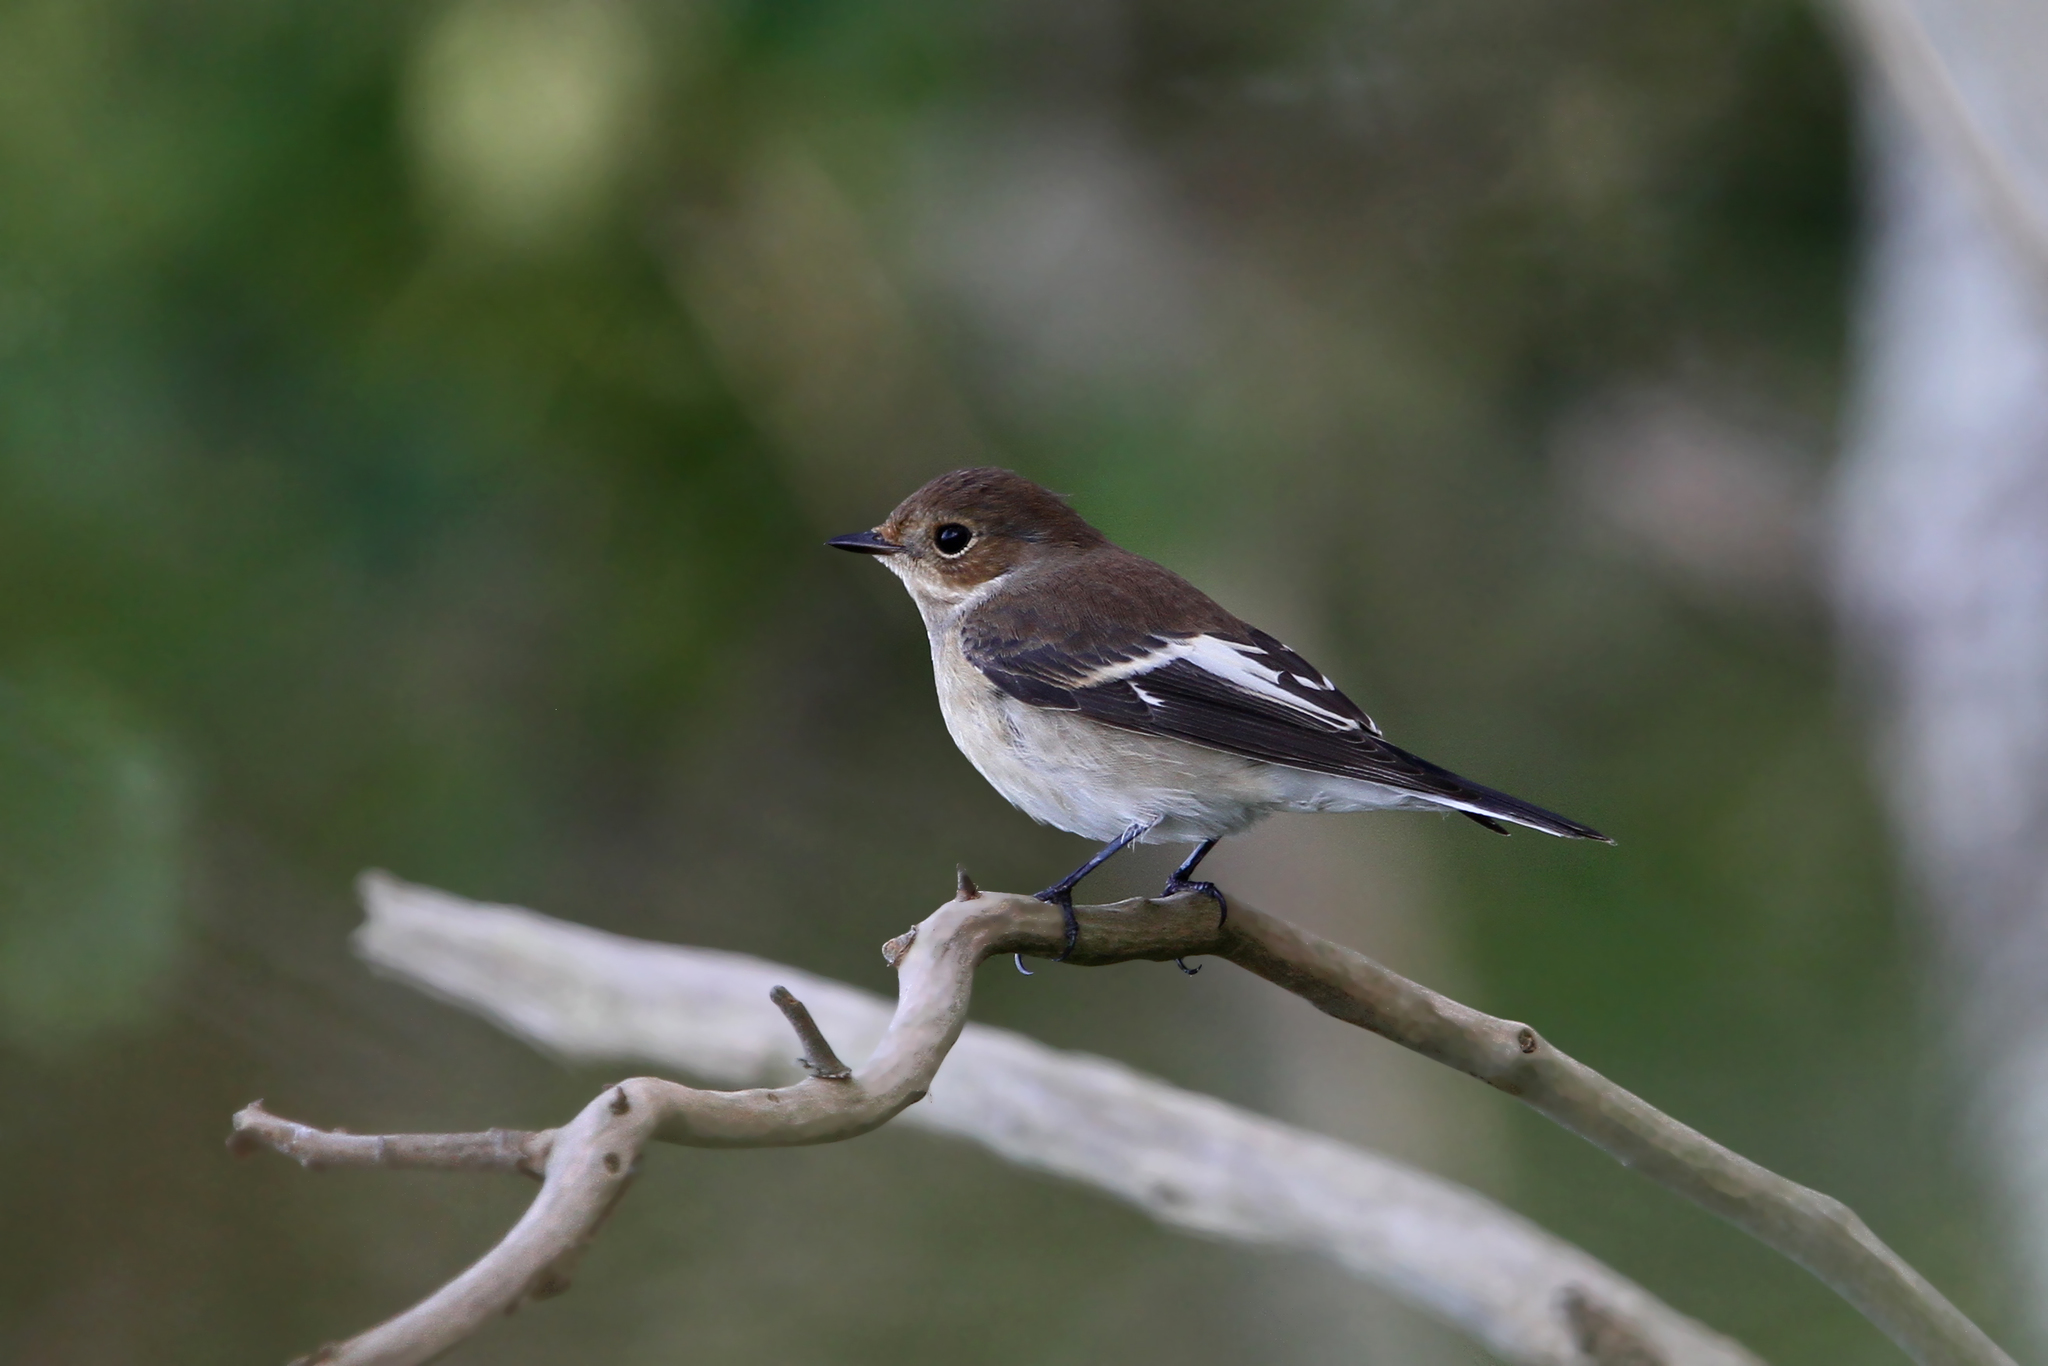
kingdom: Animalia
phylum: Chordata
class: Aves
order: Passeriformes
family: Muscicapidae
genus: Ficedula
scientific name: Ficedula hypoleuca
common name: European pied flycatcher
